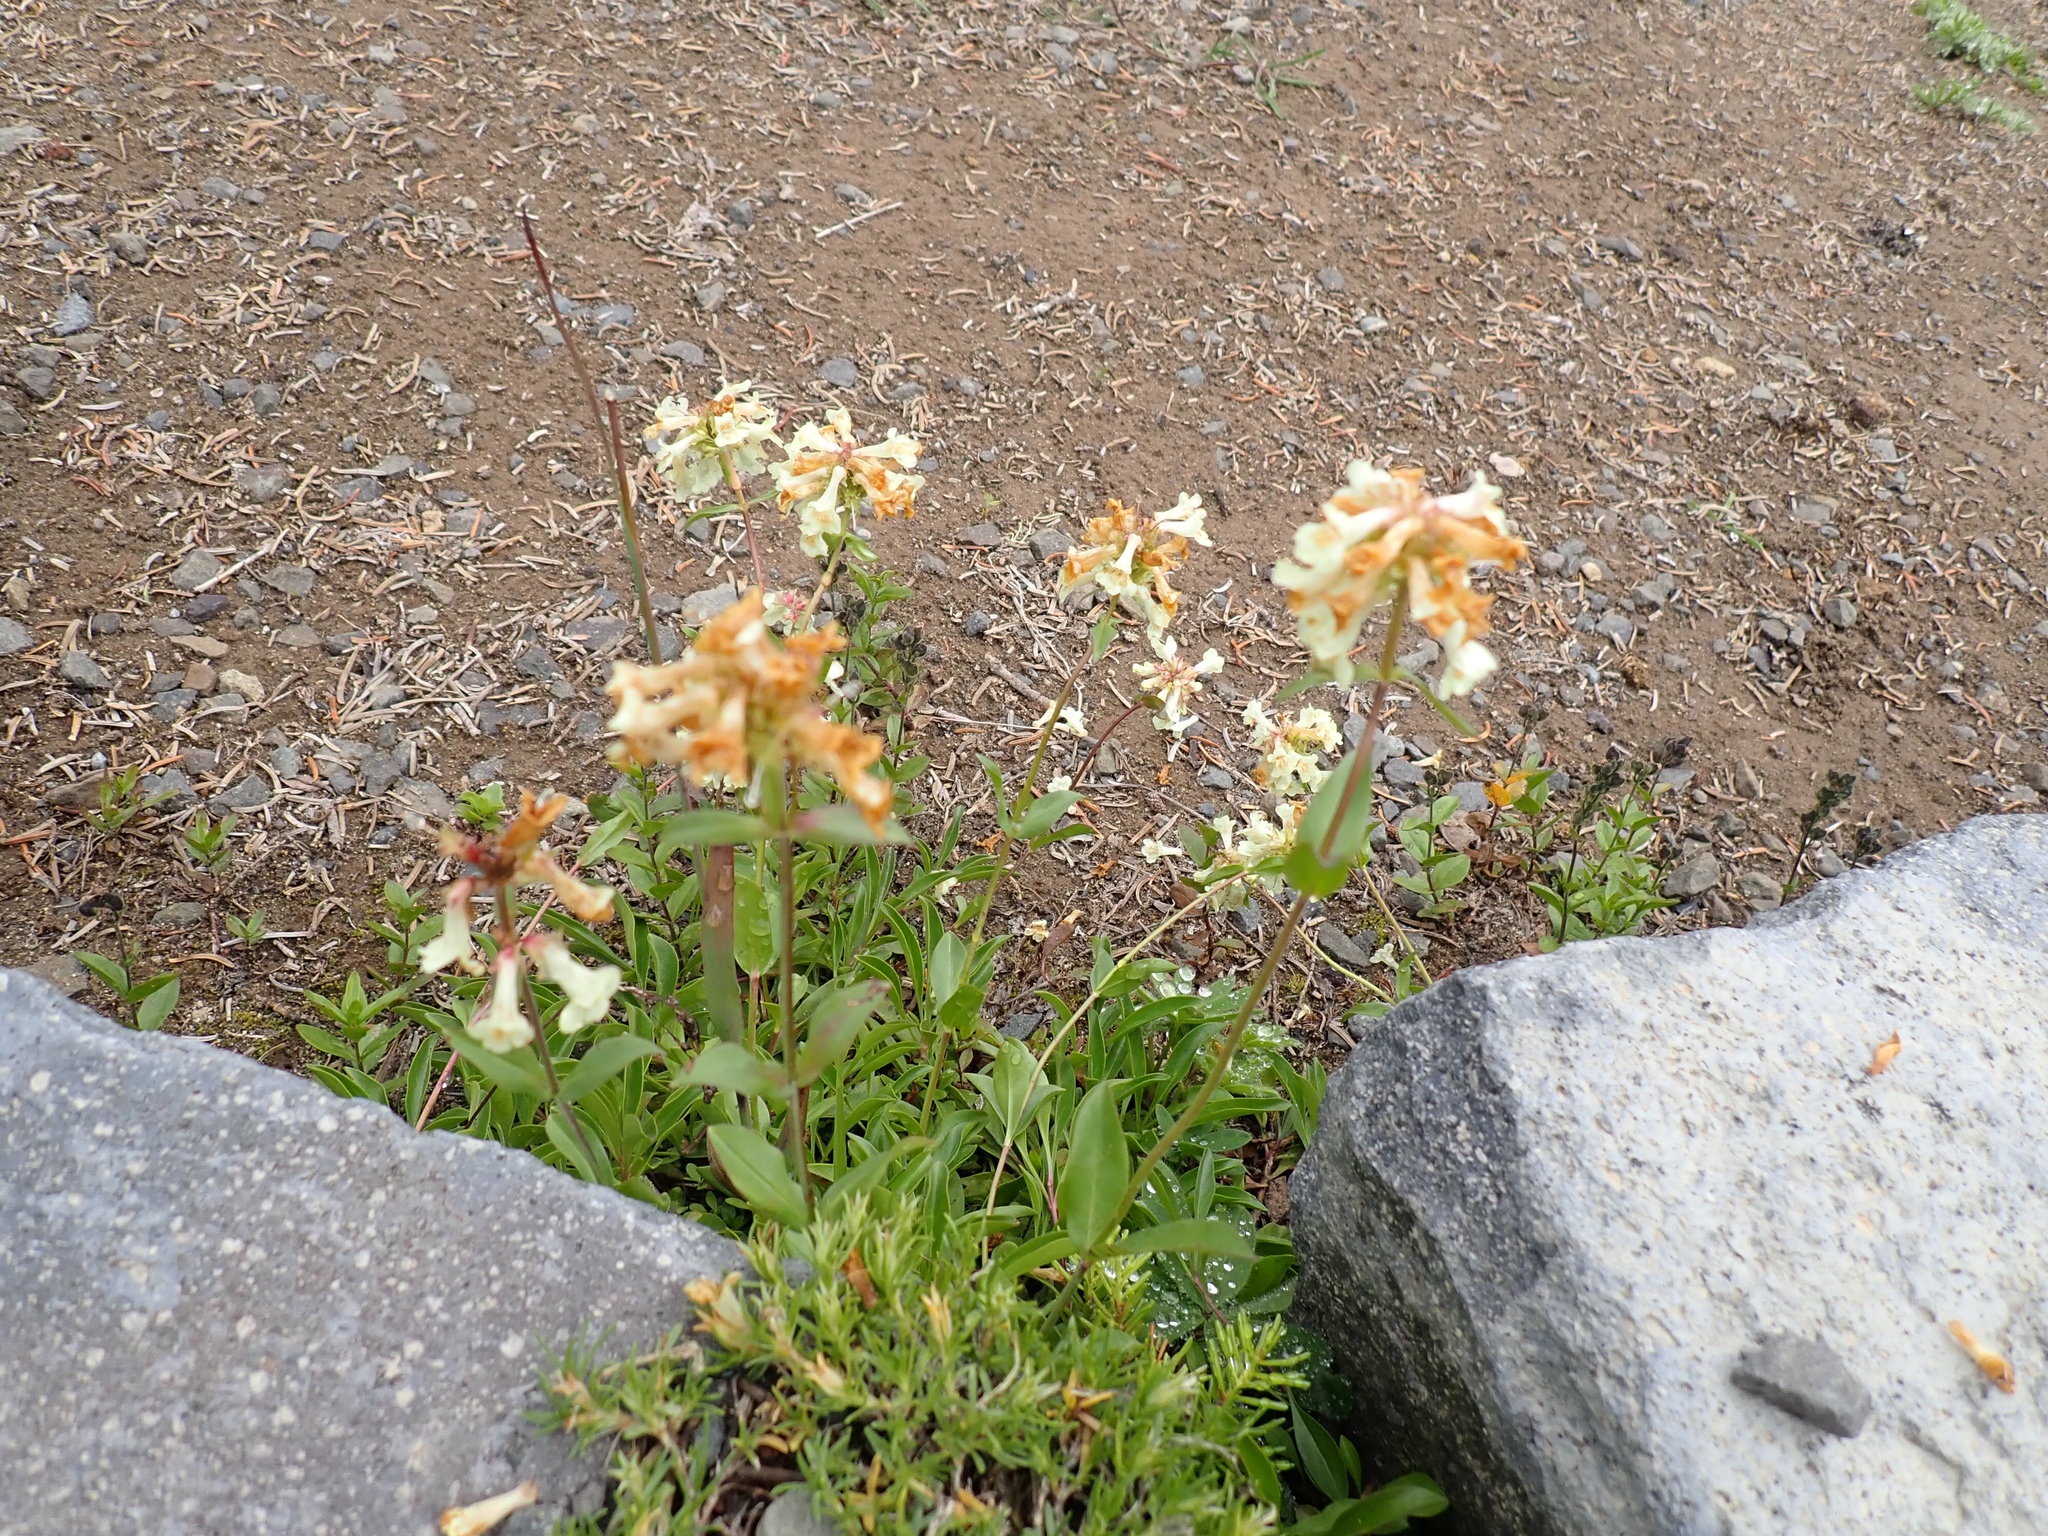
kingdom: Plantae
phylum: Tracheophyta
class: Magnoliopsida
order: Lamiales
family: Plantaginaceae
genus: Penstemon
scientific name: Penstemon confertus
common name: Lesser yellow beardtongue
